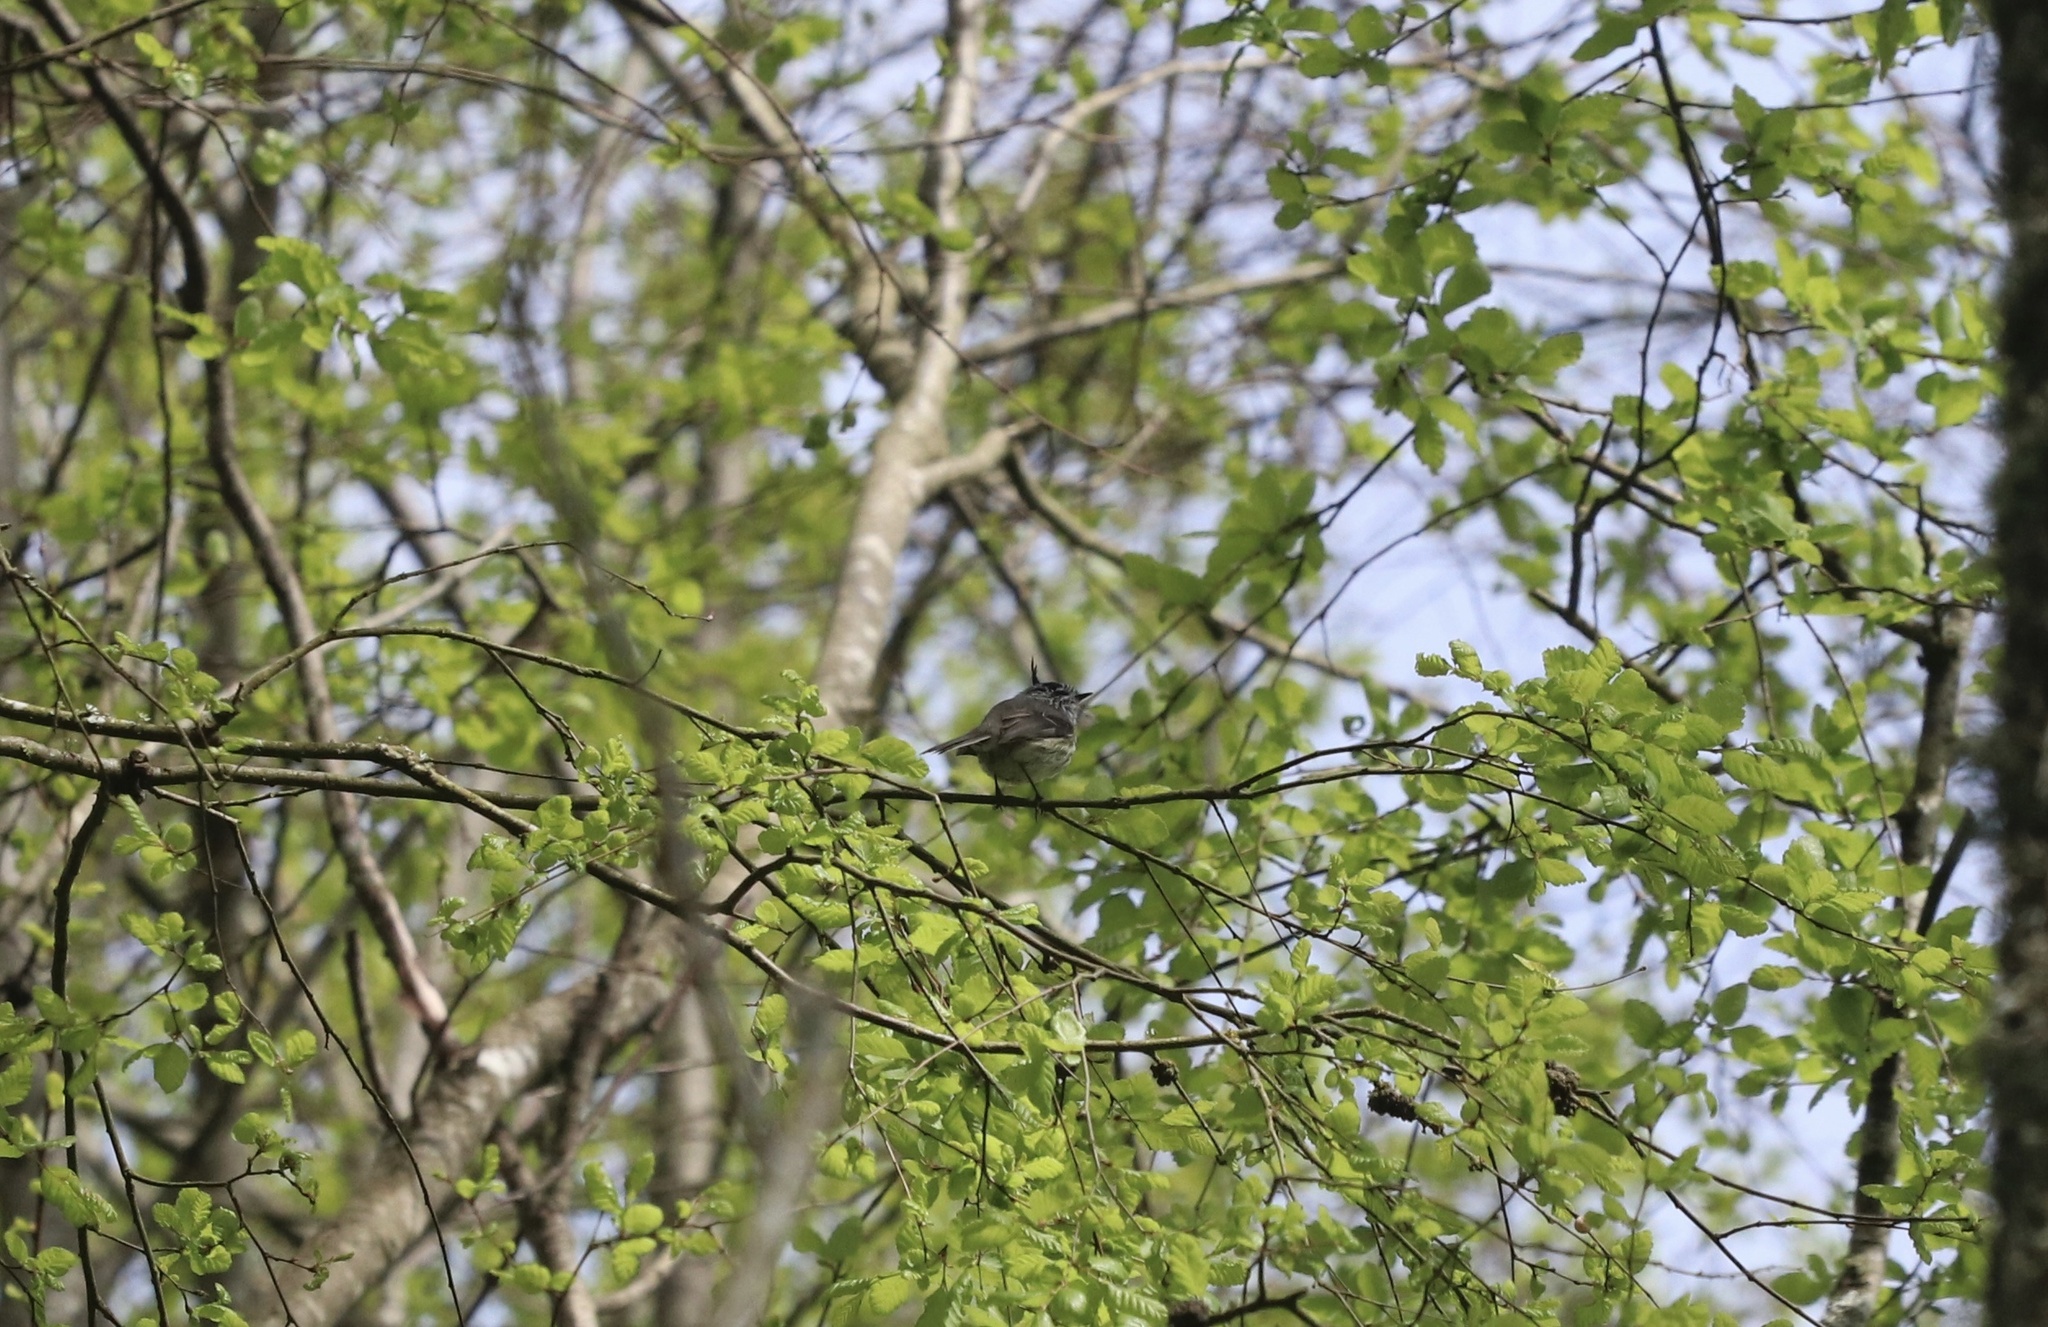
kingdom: Animalia
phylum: Chordata
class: Aves
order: Passeriformes
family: Tyrannidae
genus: Anairetes
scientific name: Anairetes parulus
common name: Tufted tit-tyrant
